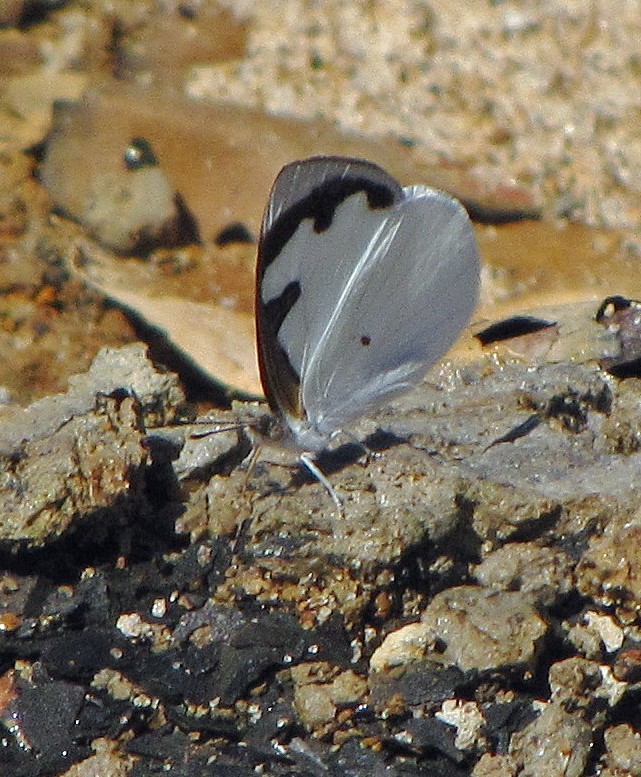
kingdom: Animalia
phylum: Arthropoda
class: Insecta
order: Lepidoptera
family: Nymphalidae
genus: Dynamine
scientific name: Dynamine myrrhina
